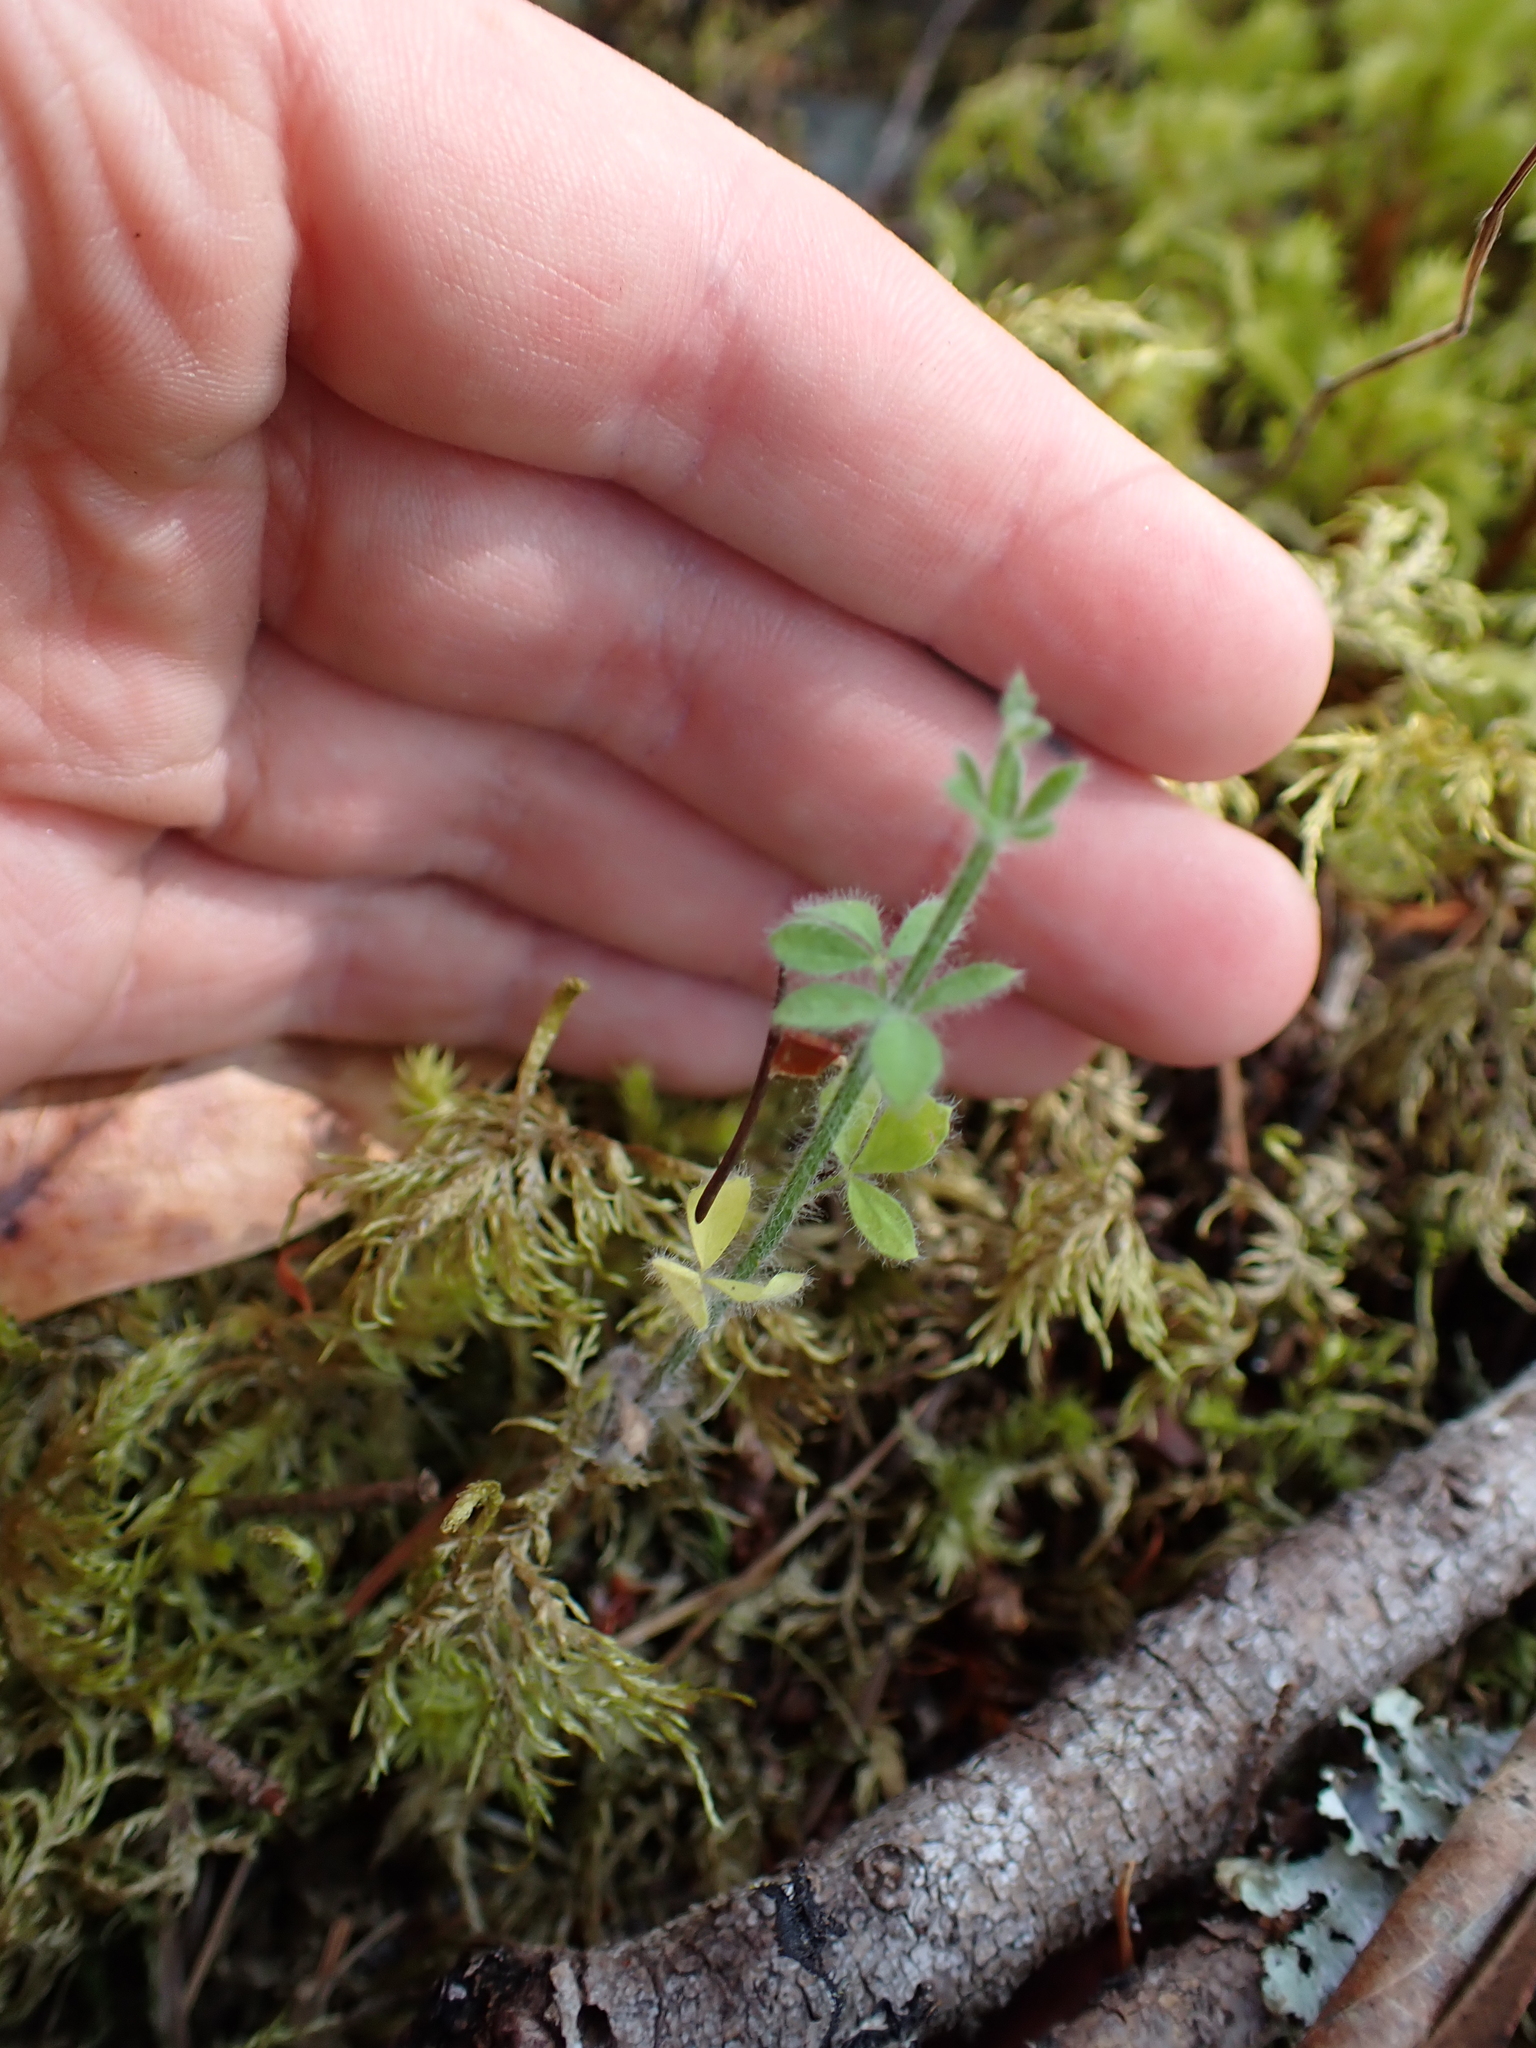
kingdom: Plantae
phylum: Tracheophyta
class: Magnoliopsida
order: Fabales
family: Fabaceae
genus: Cytisus
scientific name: Cytisus scoparius
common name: Scotch broom
